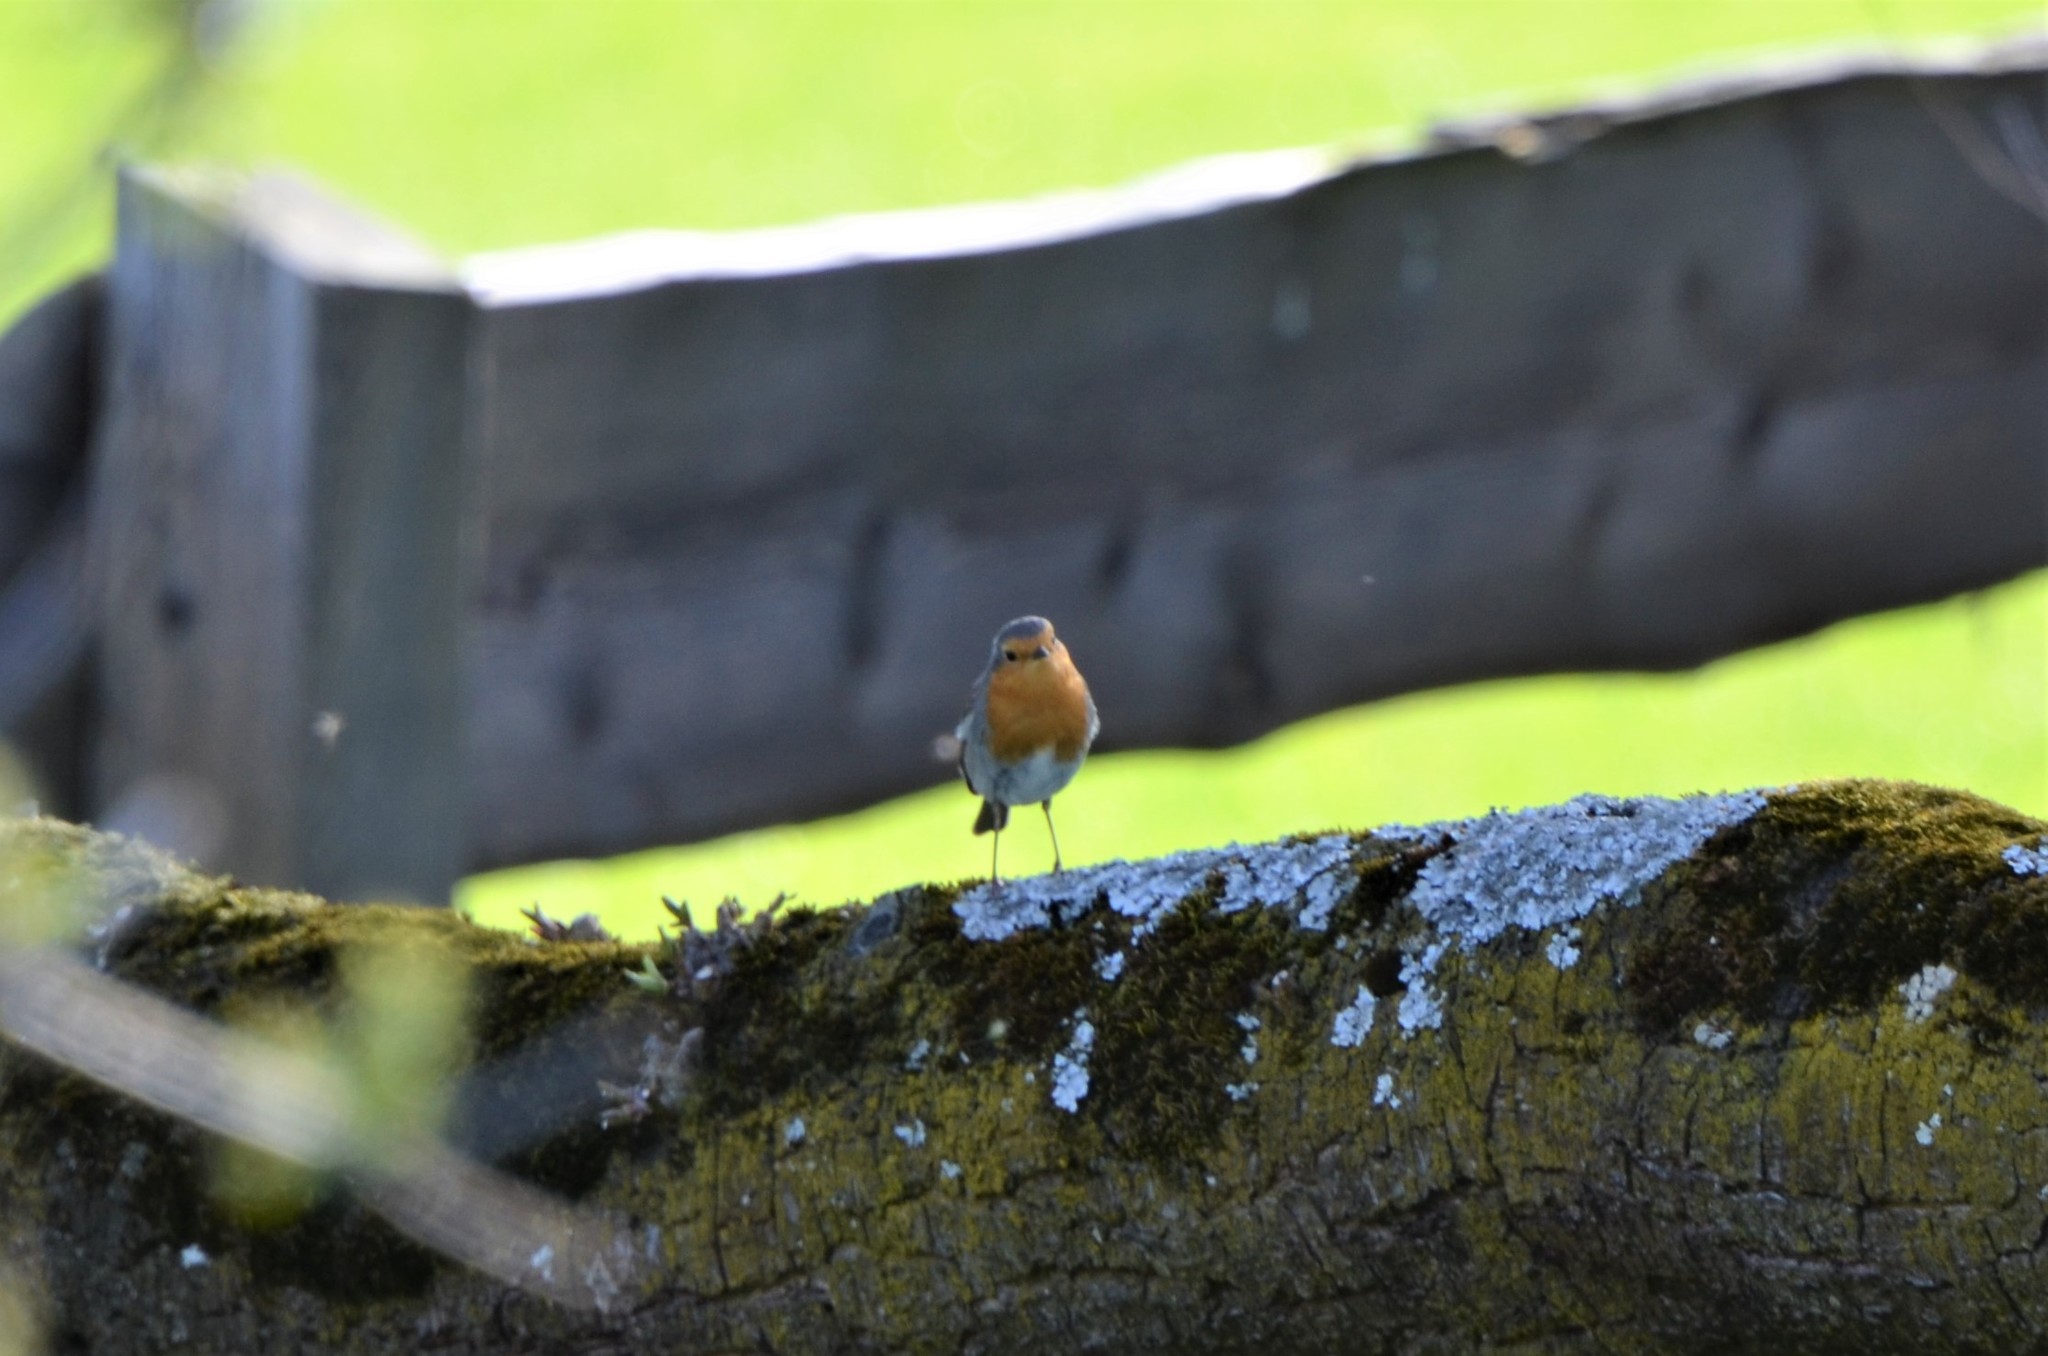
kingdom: Animalia
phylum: Chordata
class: Aves
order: Passeriformes
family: Muscicapidae
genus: Erithacus
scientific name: Erithacus rubecula
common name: European robin
